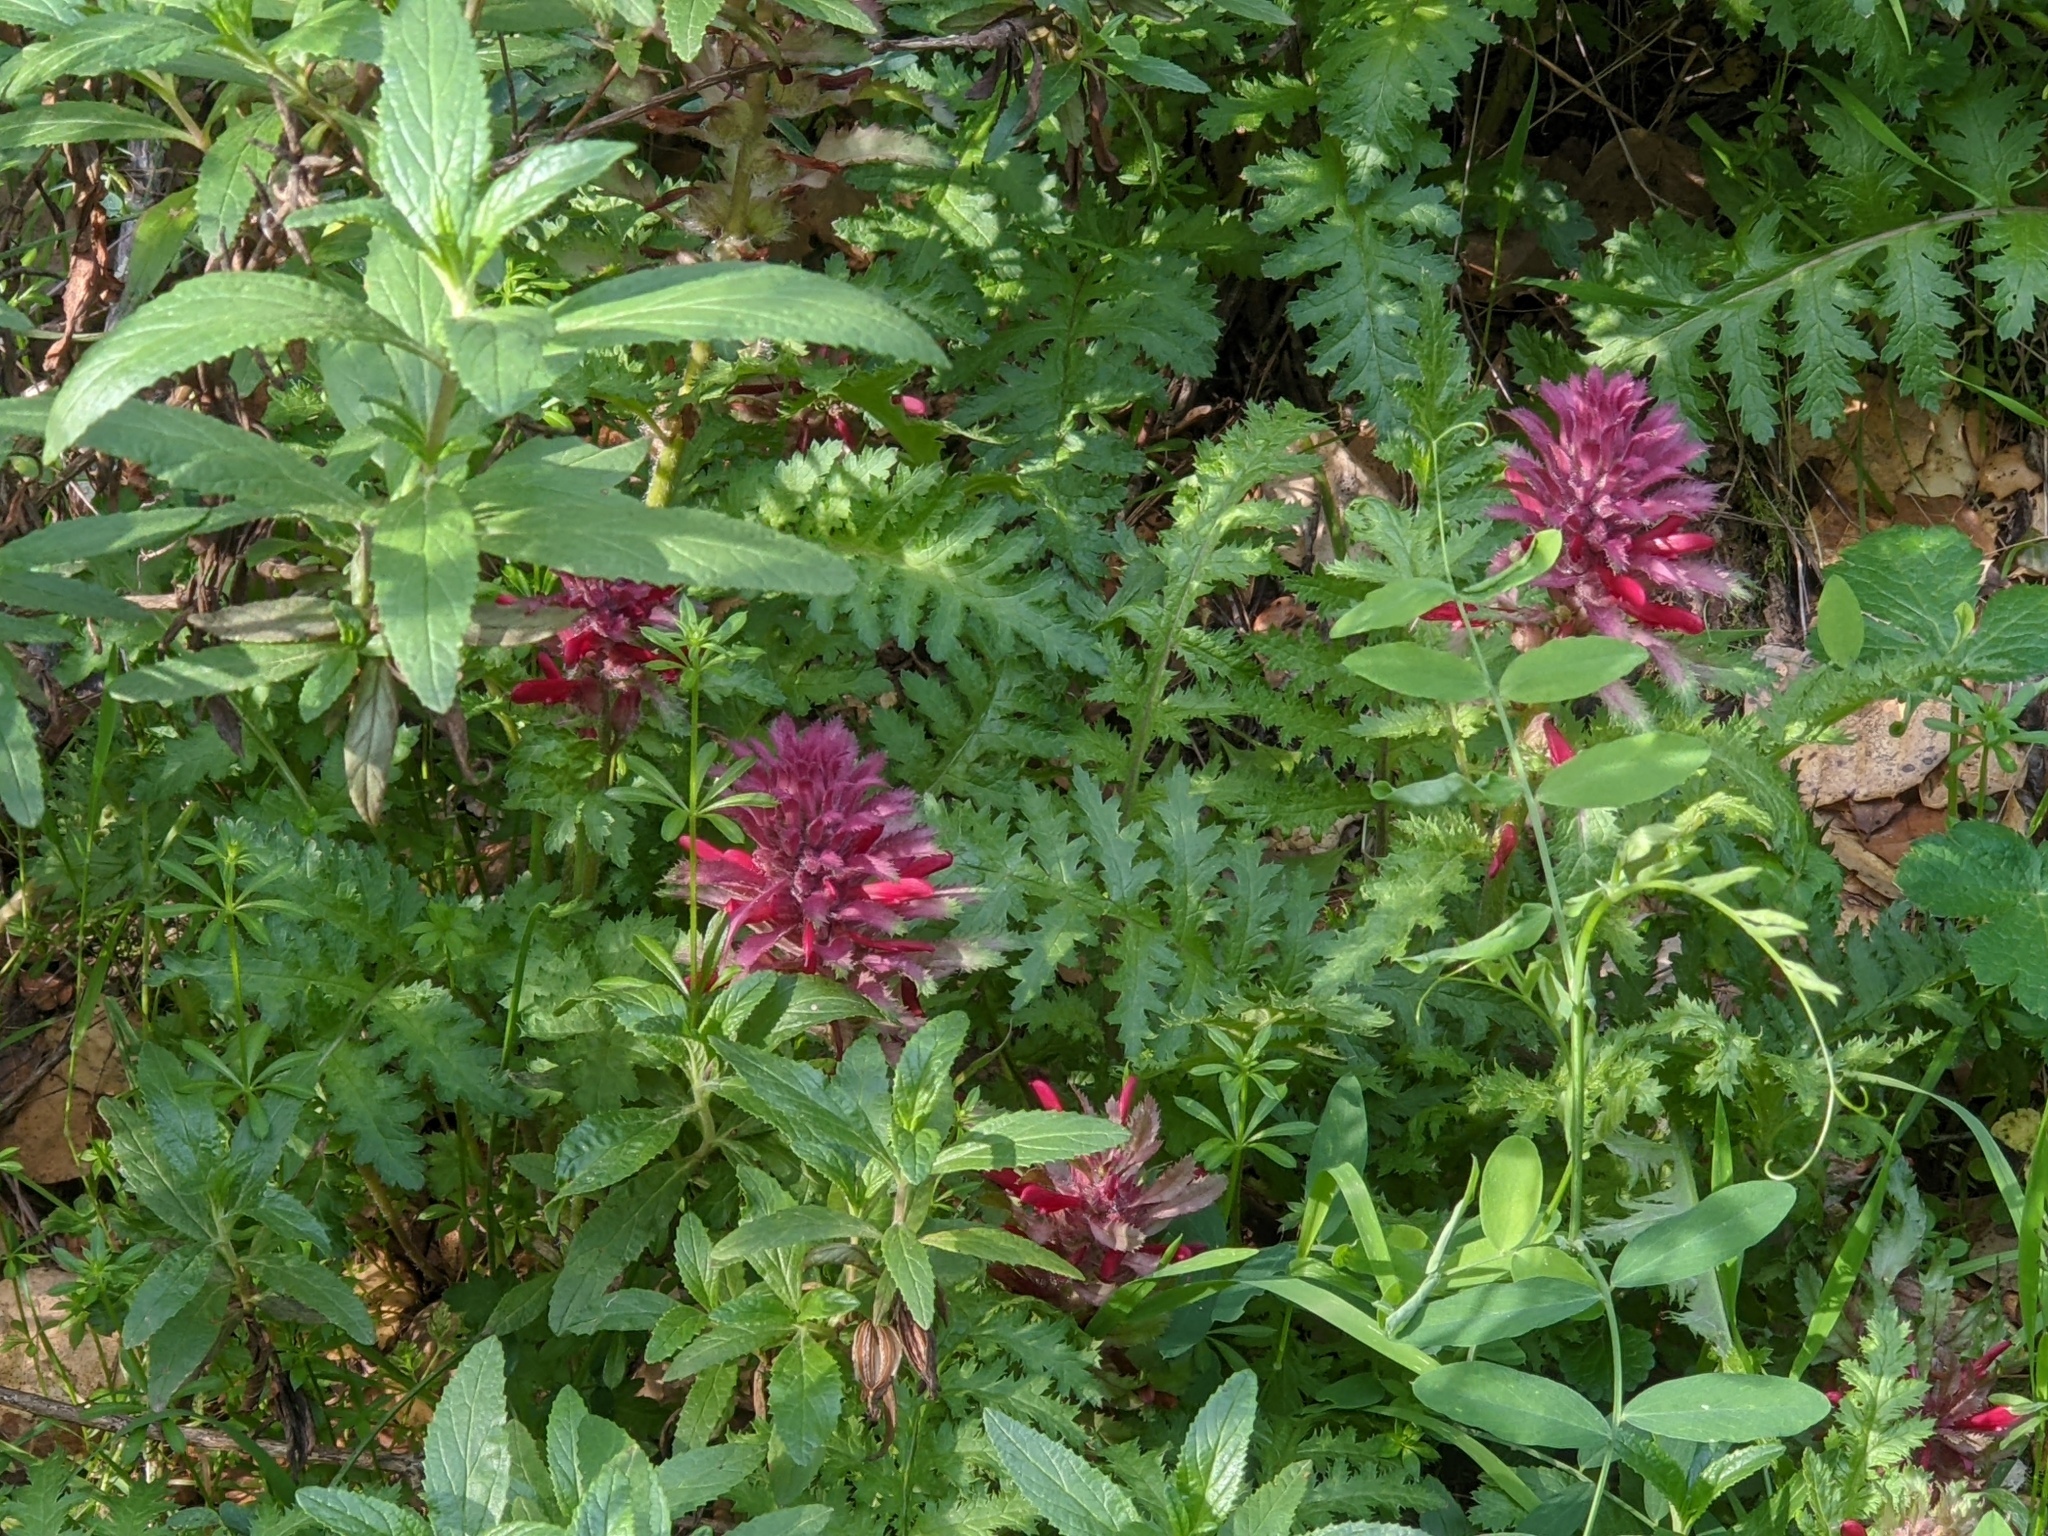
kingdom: Plantae
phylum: Tracheophyta
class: Magnoliopsida
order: Lamiales
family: Orobanchaceae
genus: Pedicularis
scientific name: Pedicularis densiflora
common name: Indian warrior
